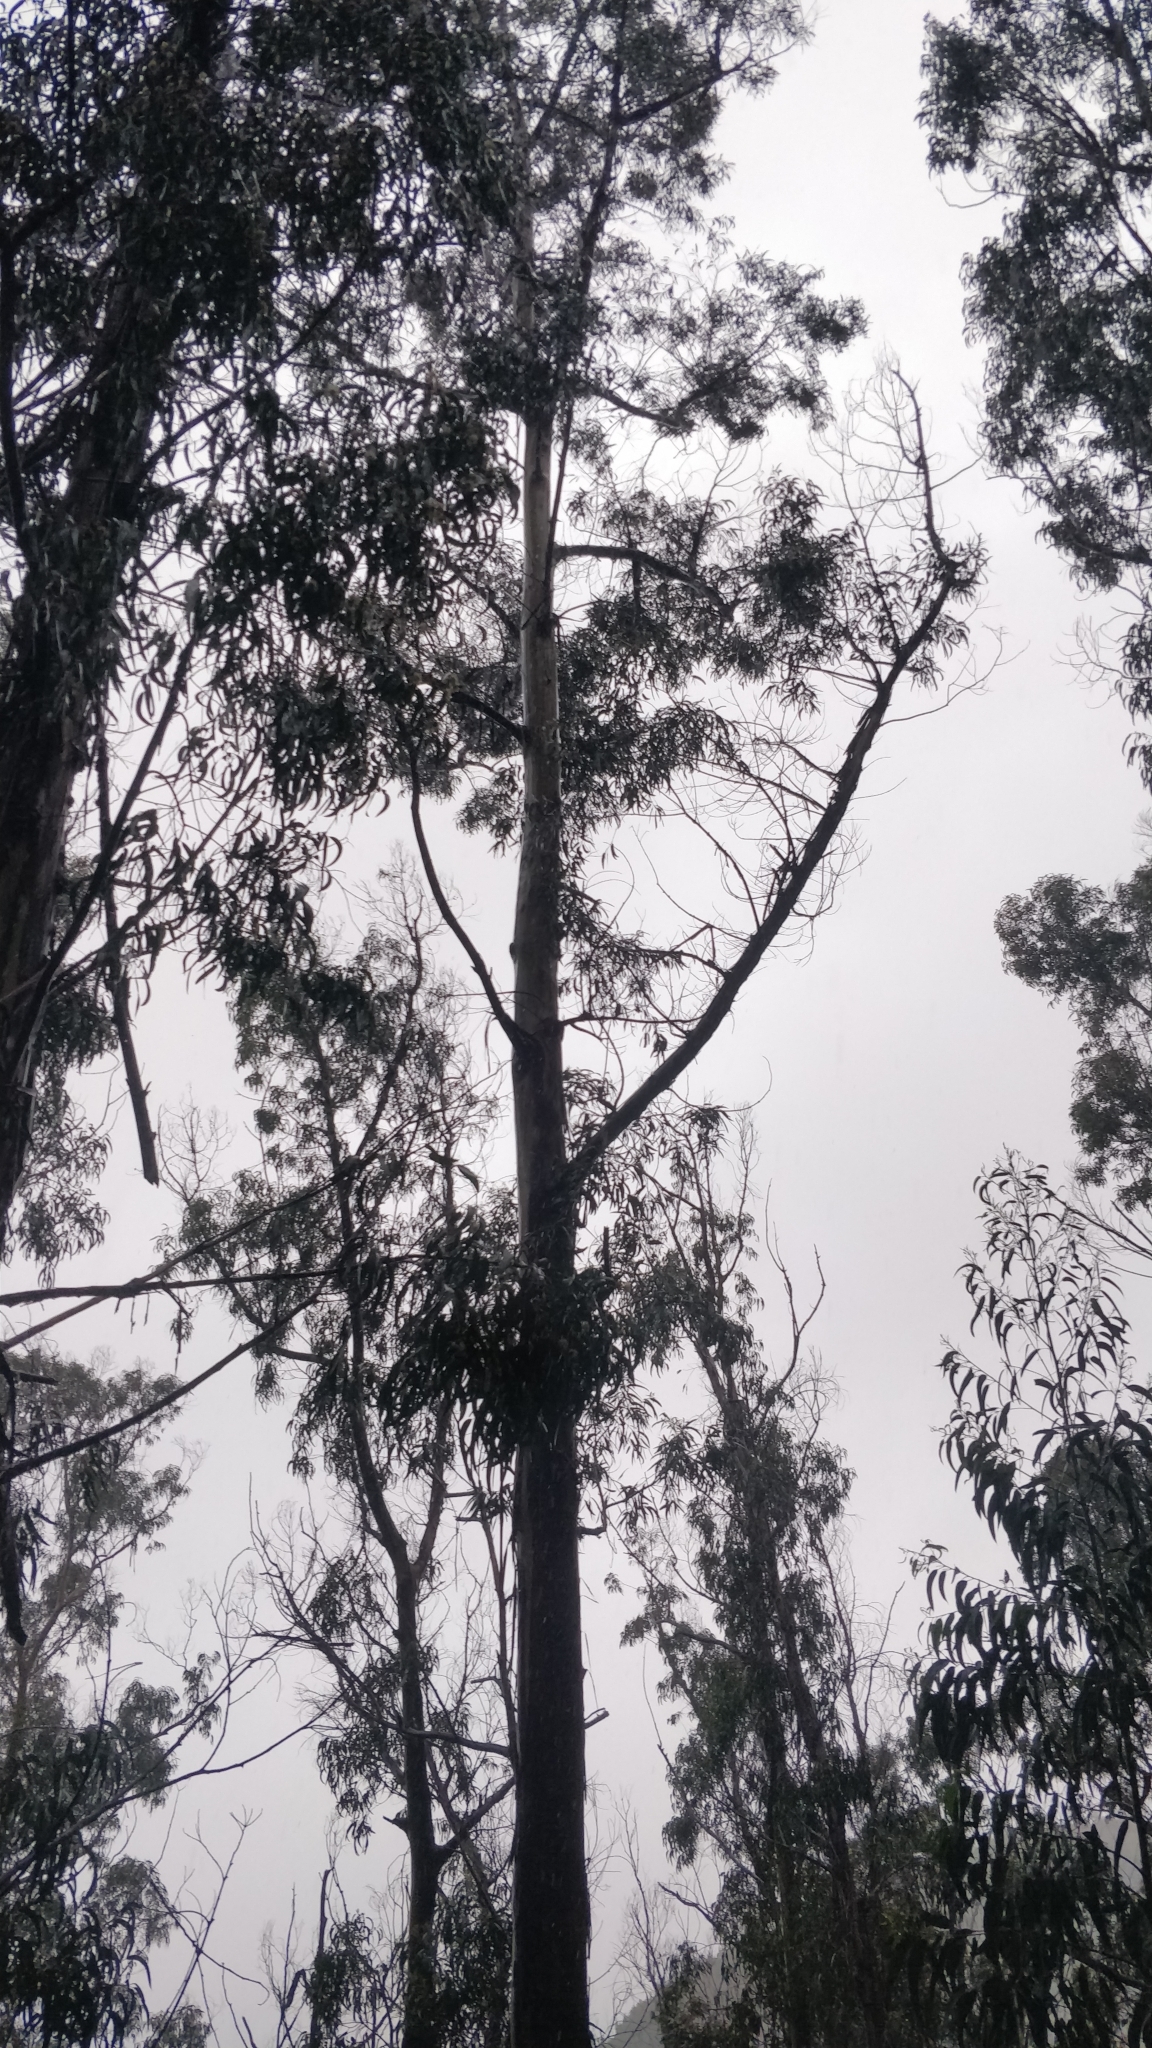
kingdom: Plantae
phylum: Tracheophyta
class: Magnoliopsida
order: Myrtales
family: Myrtaceae
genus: Eucalyptus
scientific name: Eucalyptus globulus
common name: Southern blue-gum
